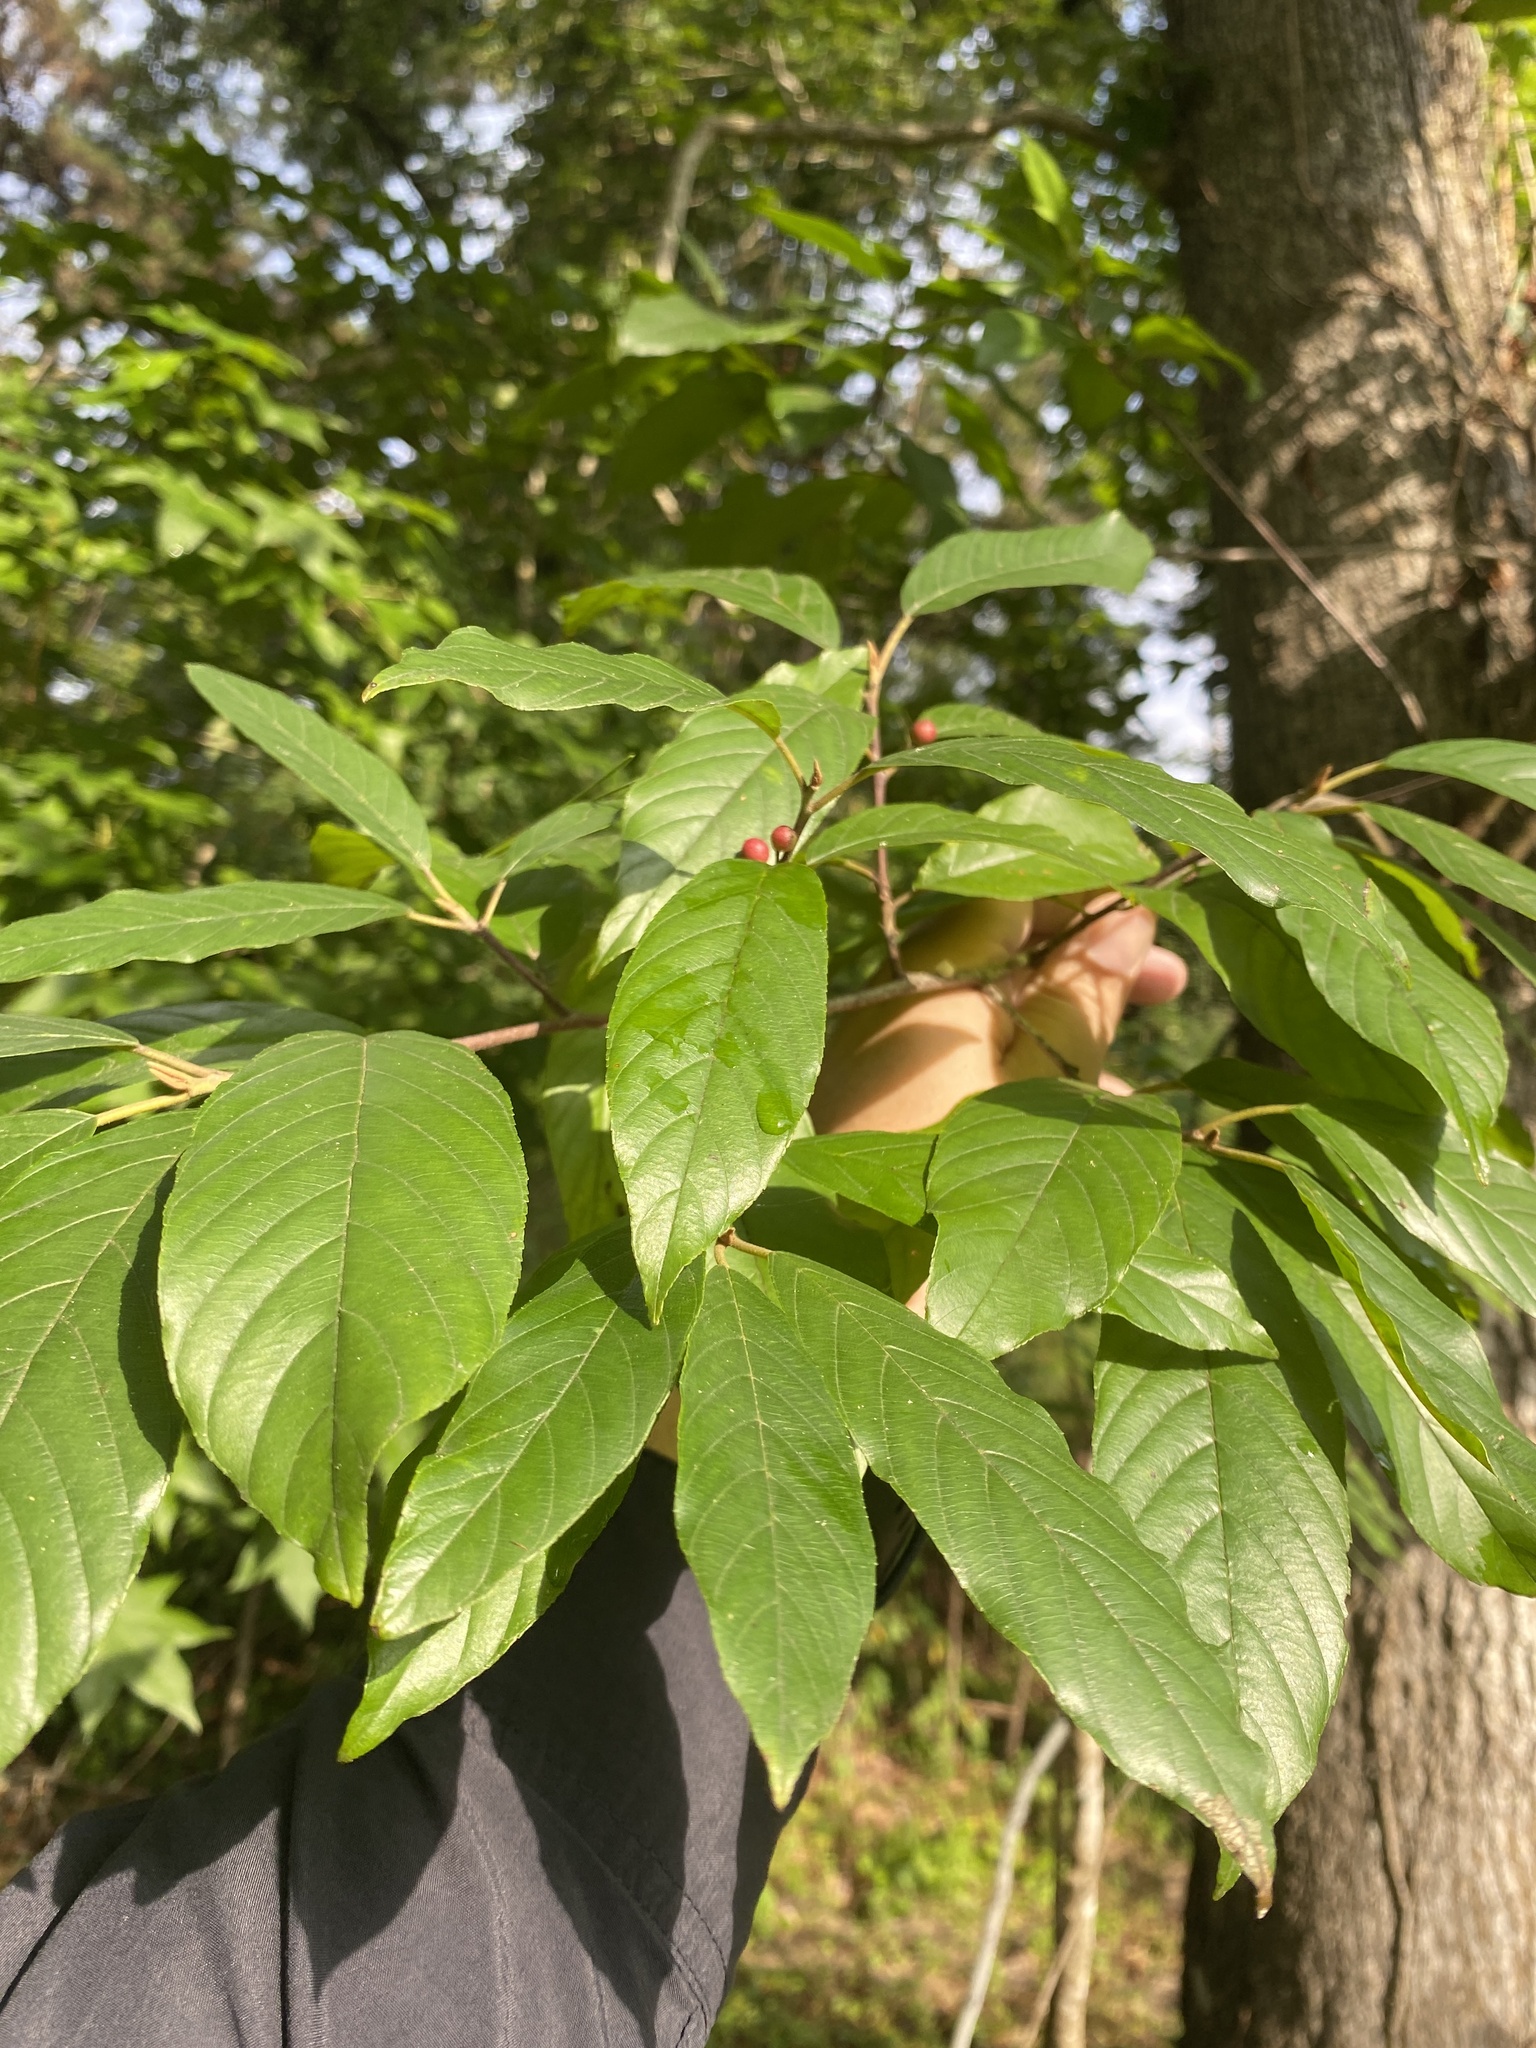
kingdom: Plantae
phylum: Tracheophyta
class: Magnoliopsida
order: Rosales
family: Rhamnaceae
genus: Frangula
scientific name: Frangula caroliniana
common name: Carolina buckthorn
